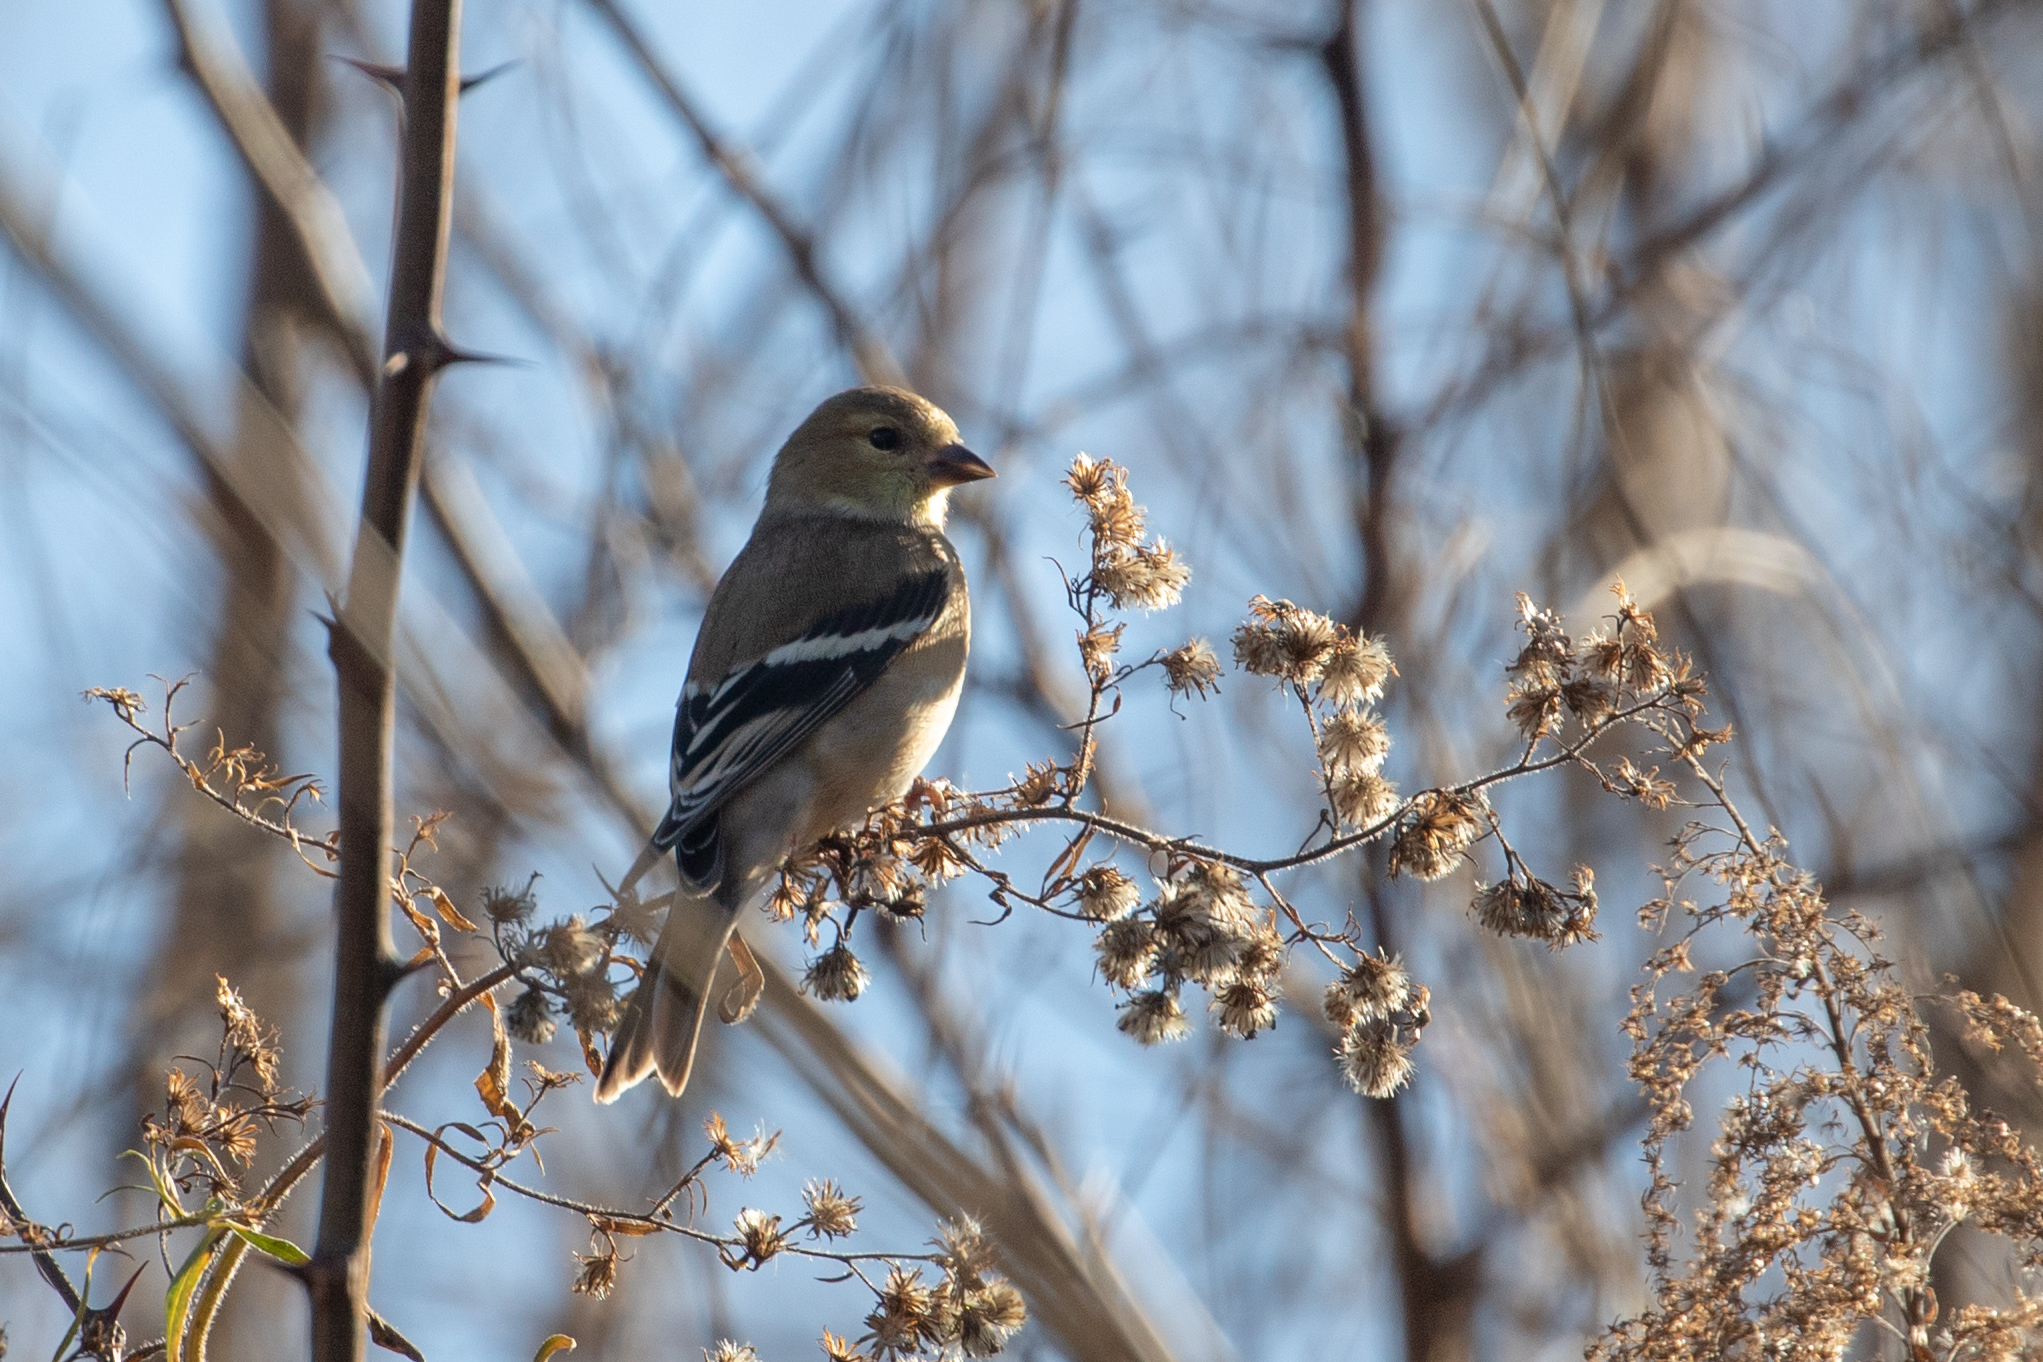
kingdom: Animalia
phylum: Chordata
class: Aves
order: Passeriformes
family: Fringillidae
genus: Spinus
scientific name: Spinus tristis
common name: American goldfinch
